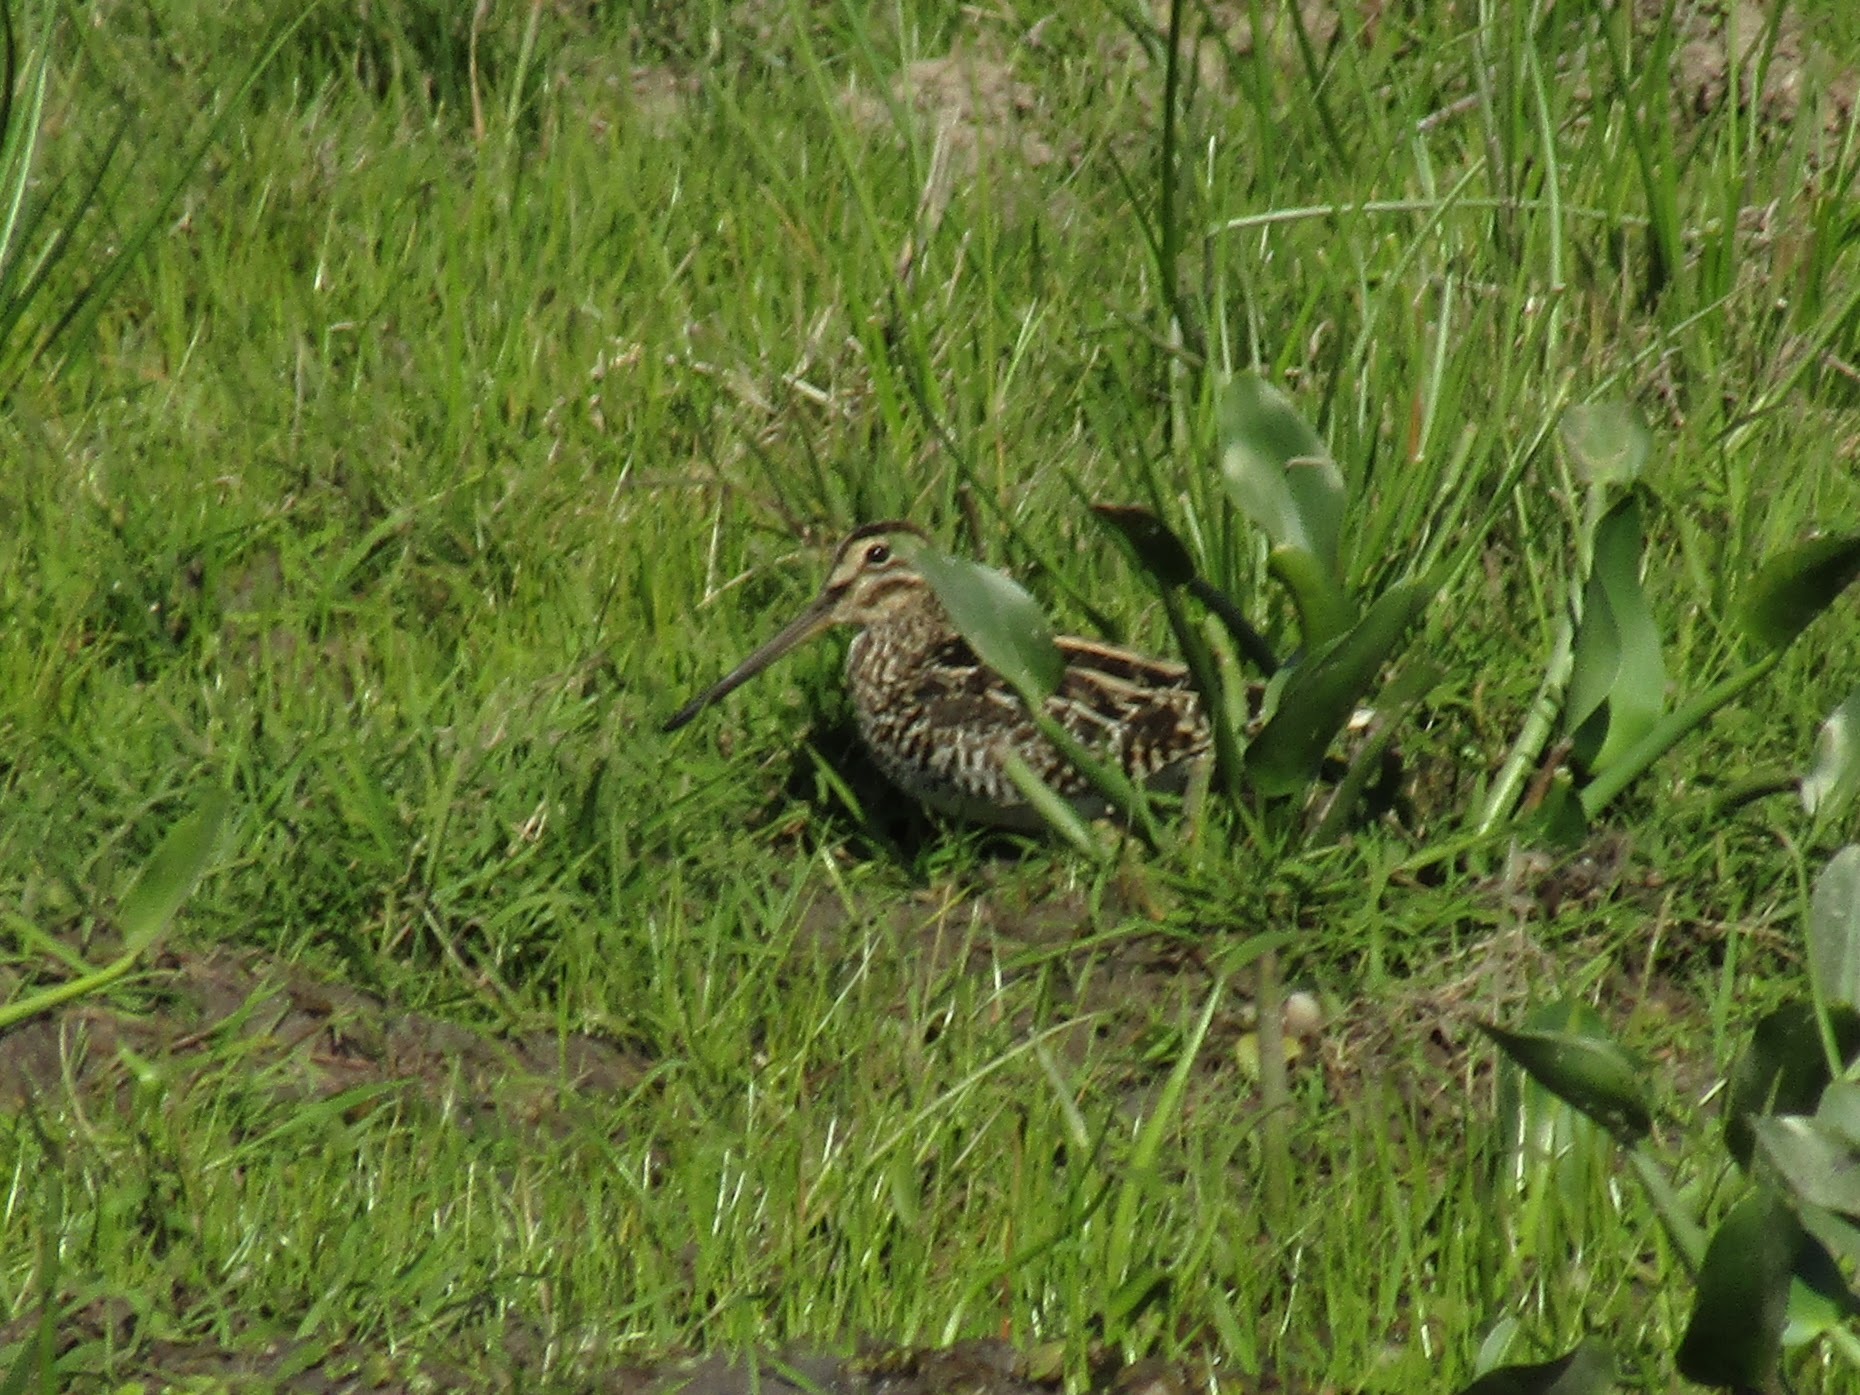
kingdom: Animalia
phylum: Chordata
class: Aves
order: Charadriiformes
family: Scolopacidae
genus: Gallinago
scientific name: Gallinago paraguaiae
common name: South american snipe
